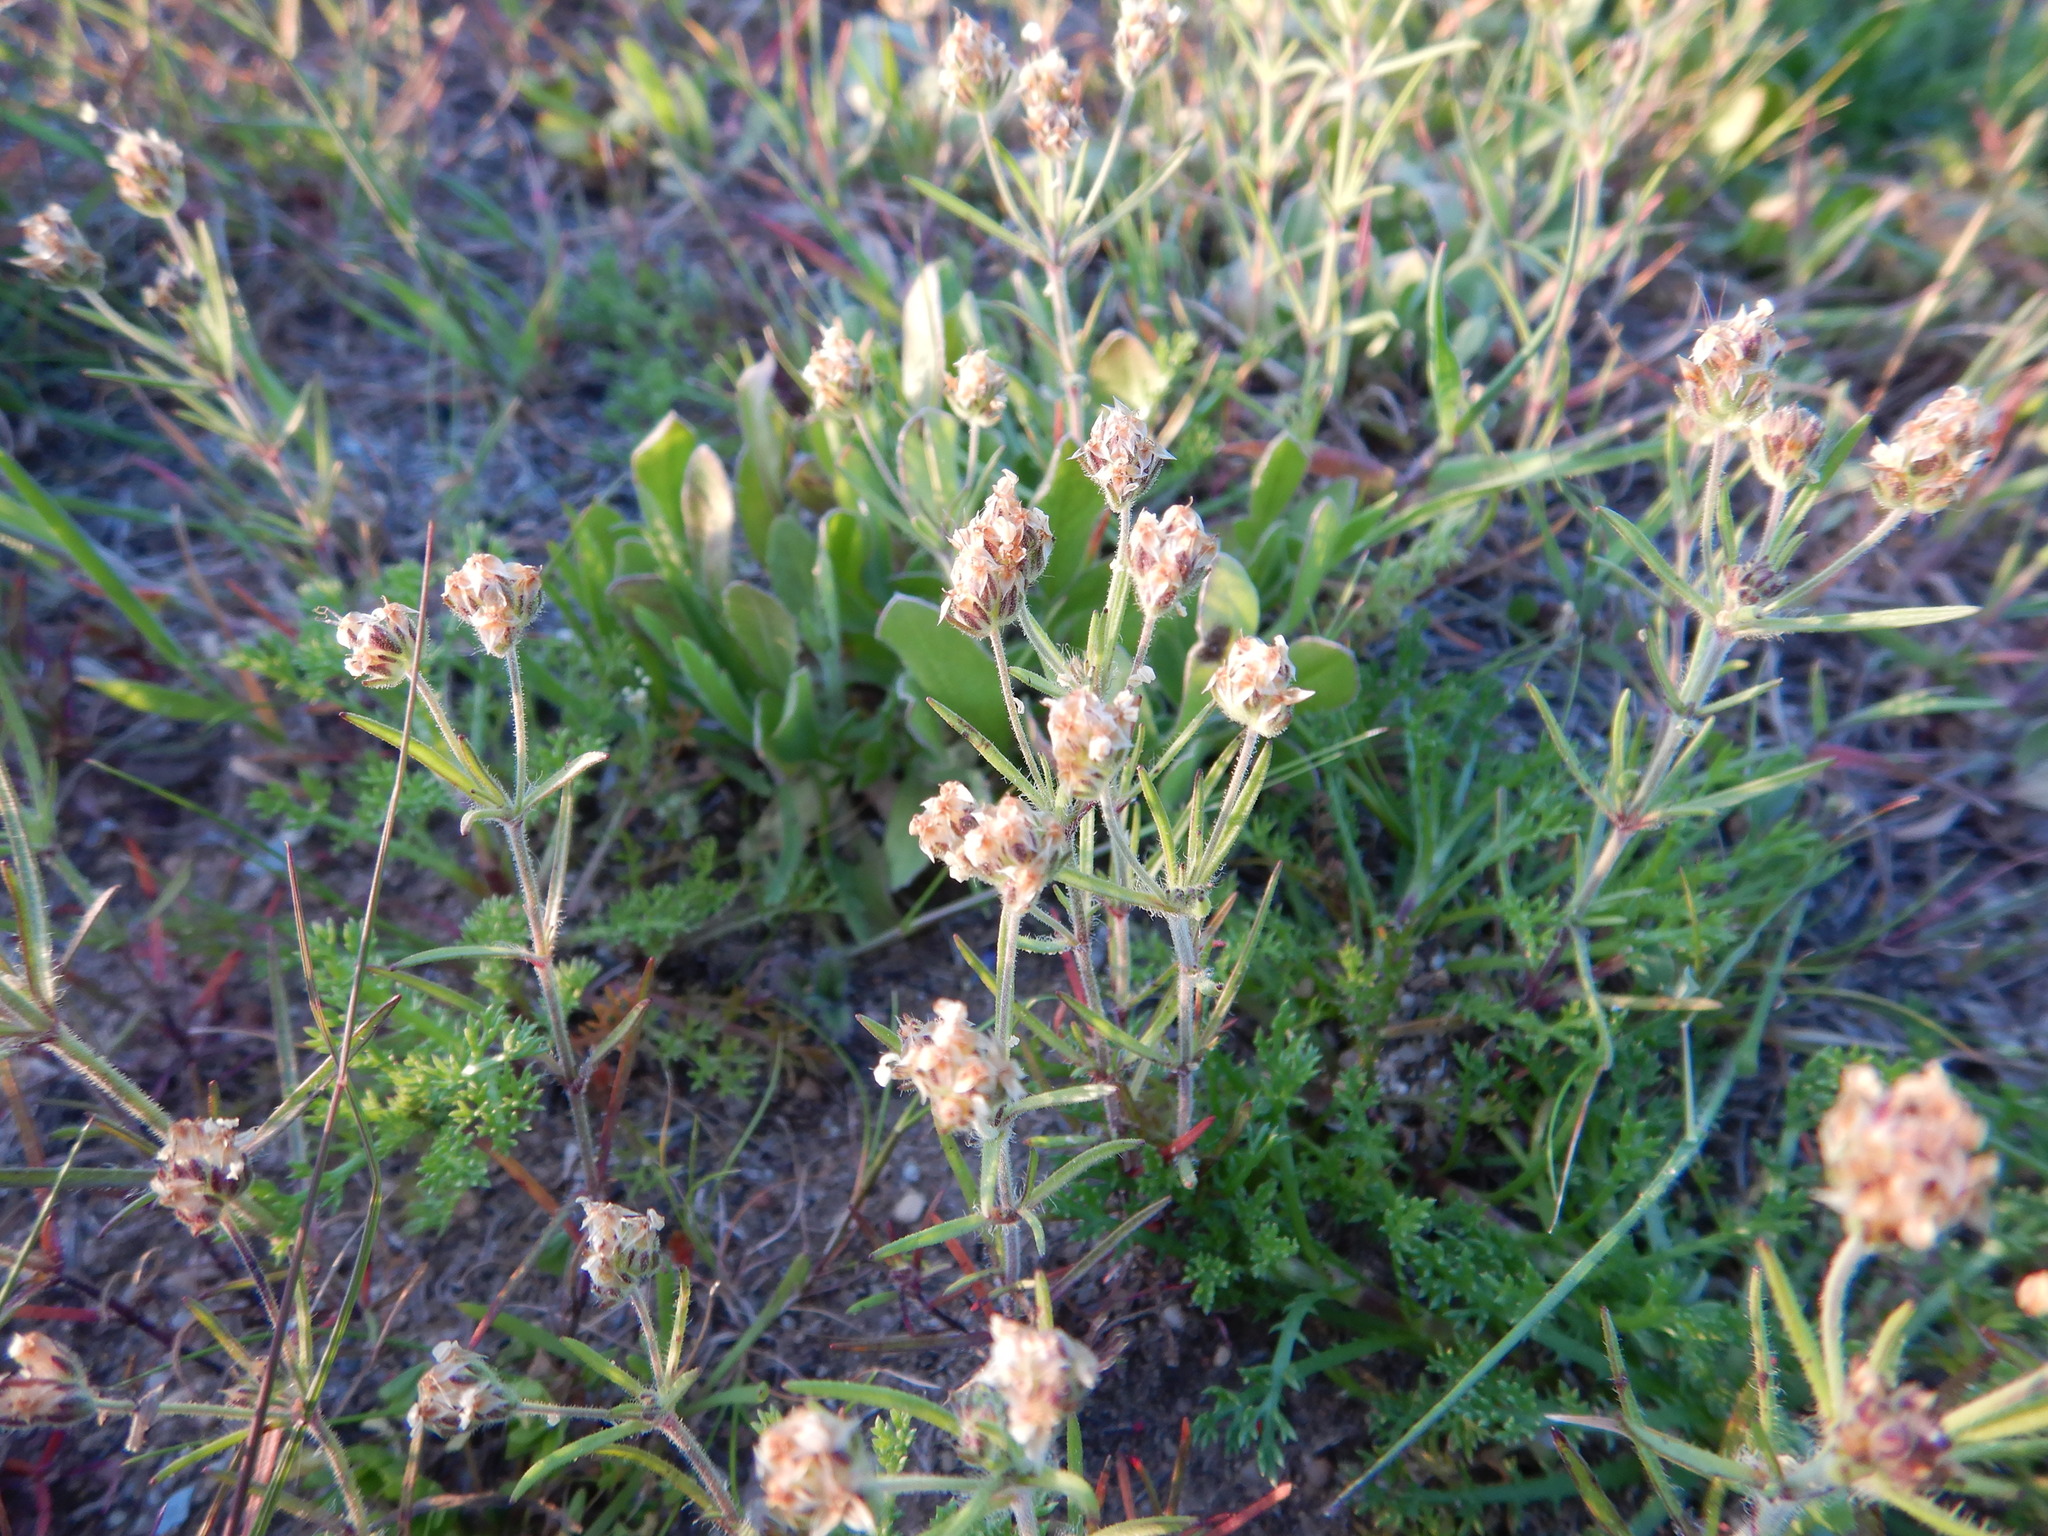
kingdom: Plantae
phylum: Tracheophyta
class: Magnoliopsida
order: Lamiales
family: Plantaginaceae
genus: Plantago
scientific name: Plantago afra
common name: Glandular plantain
